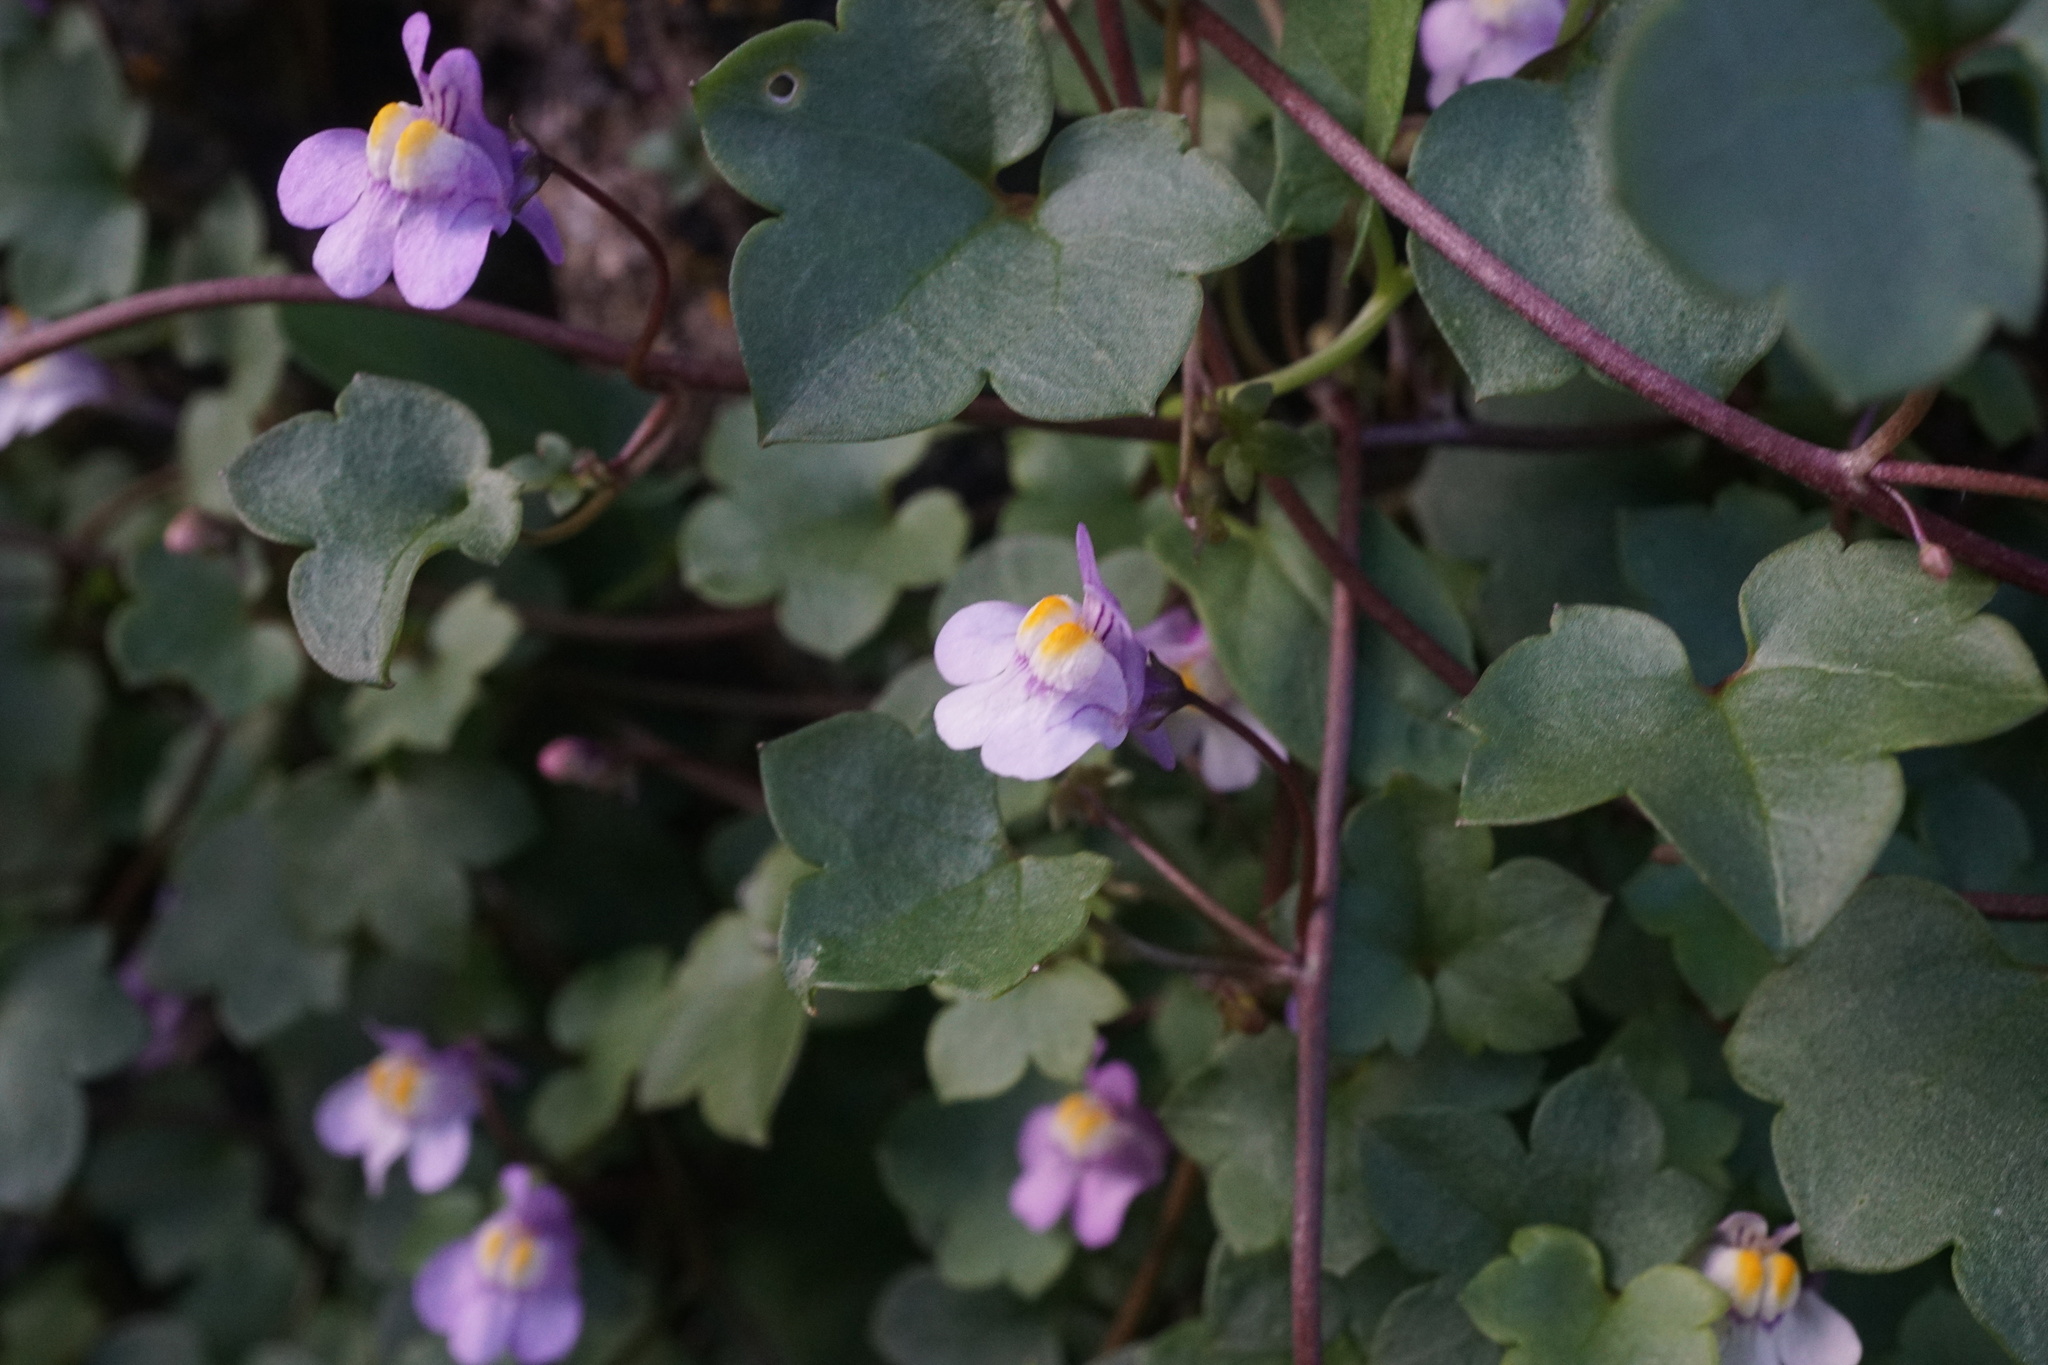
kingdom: Plantae
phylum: Tracheophyta
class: Magnoliopsida
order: Lamiales
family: Plantaginaceae
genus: Cymbalaria
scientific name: Cymbalaria muralis
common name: Ivy-leaved toadflax
